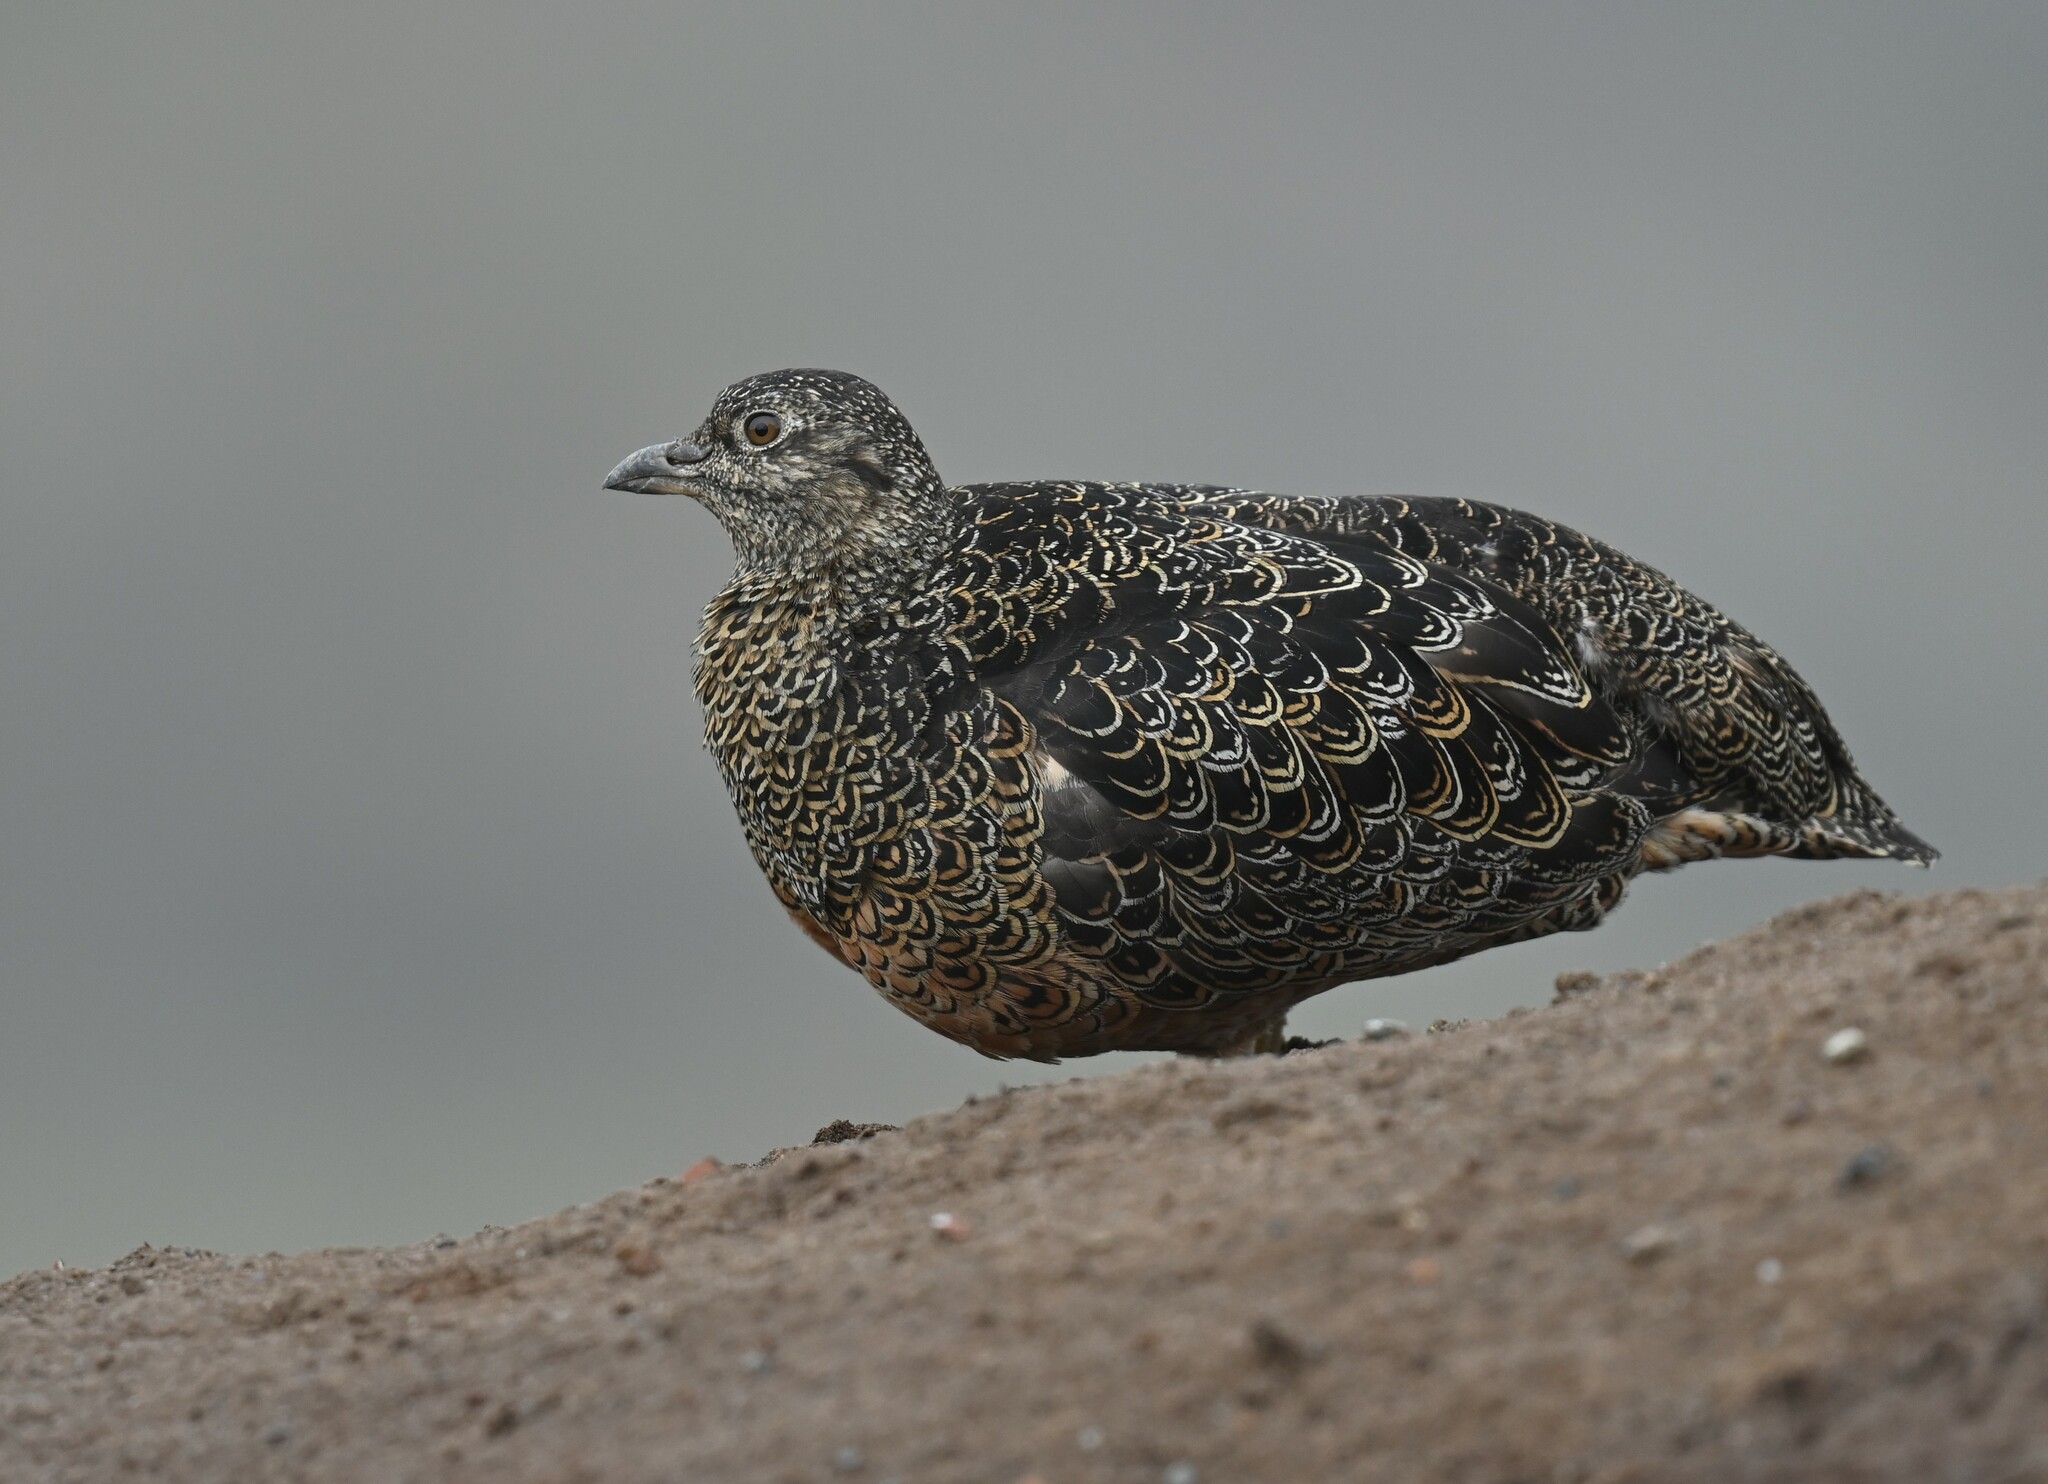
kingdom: Animalia
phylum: Chordata
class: Aves
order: Charadriiformes
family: Thinocoridae
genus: Attagis
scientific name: Attagis gayi
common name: Rufous-bellied seedsnipe
